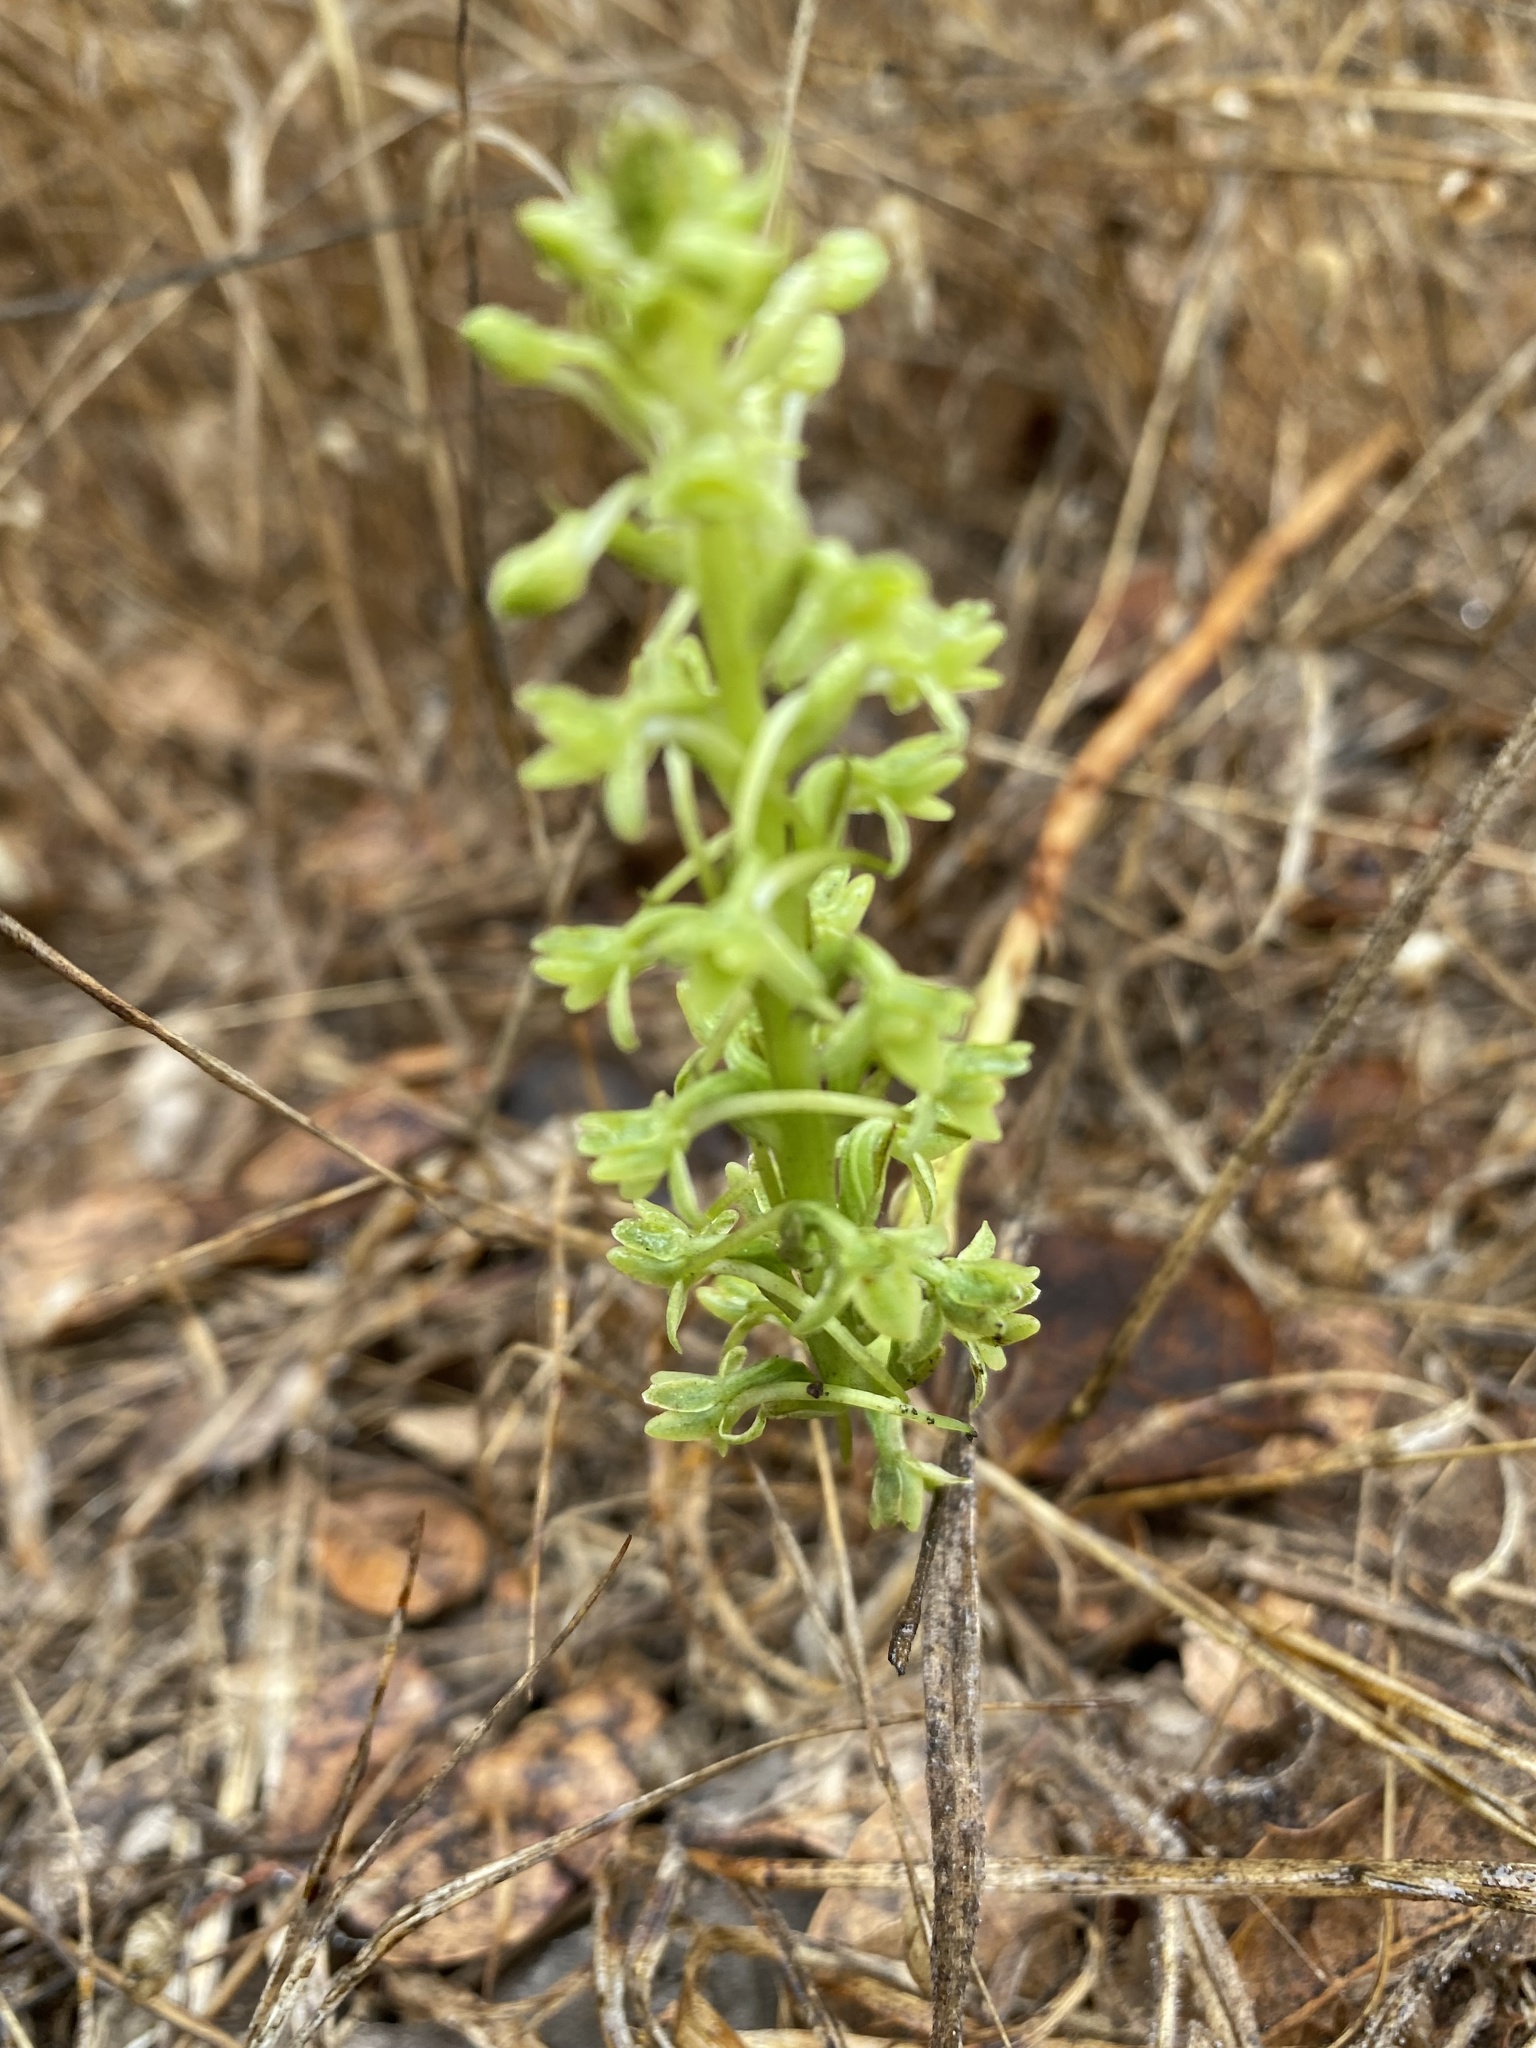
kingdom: Plantae
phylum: Tracheophyta
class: Liliopsida
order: Asparagales
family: Orchidaceae
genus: Platanthera
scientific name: Platanthera michaelii
